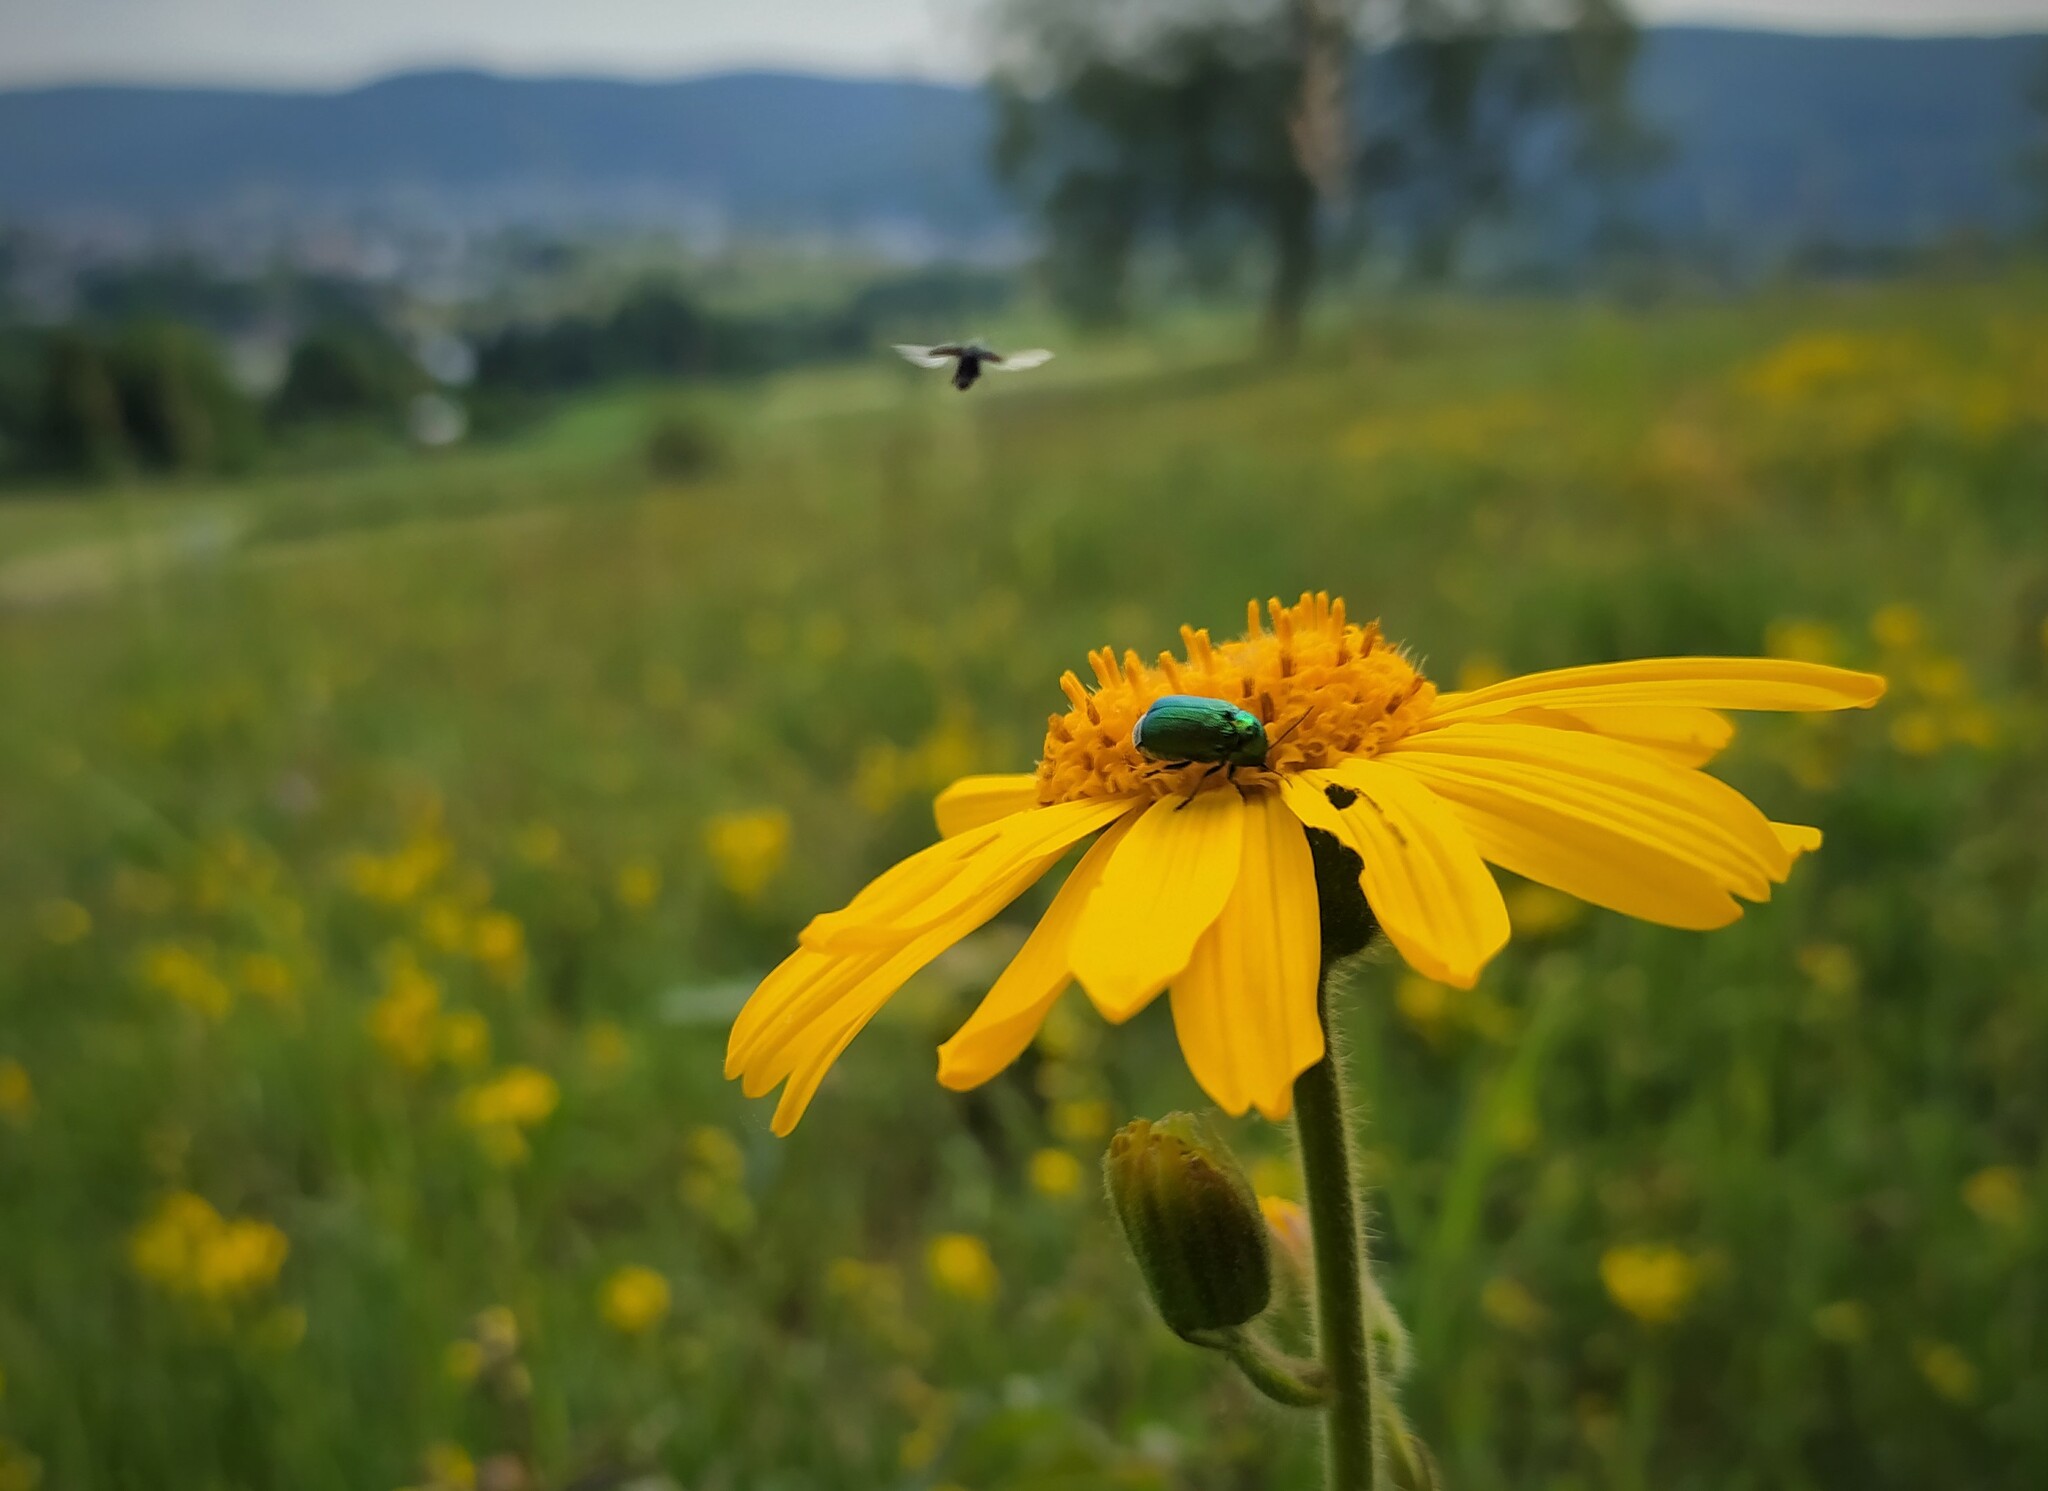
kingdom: Plantae
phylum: Tracheophyta
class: Magnoliopsida
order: Asterales
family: Asteraceae
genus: Arnica
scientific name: Arnica montana
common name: Leopard's bane
